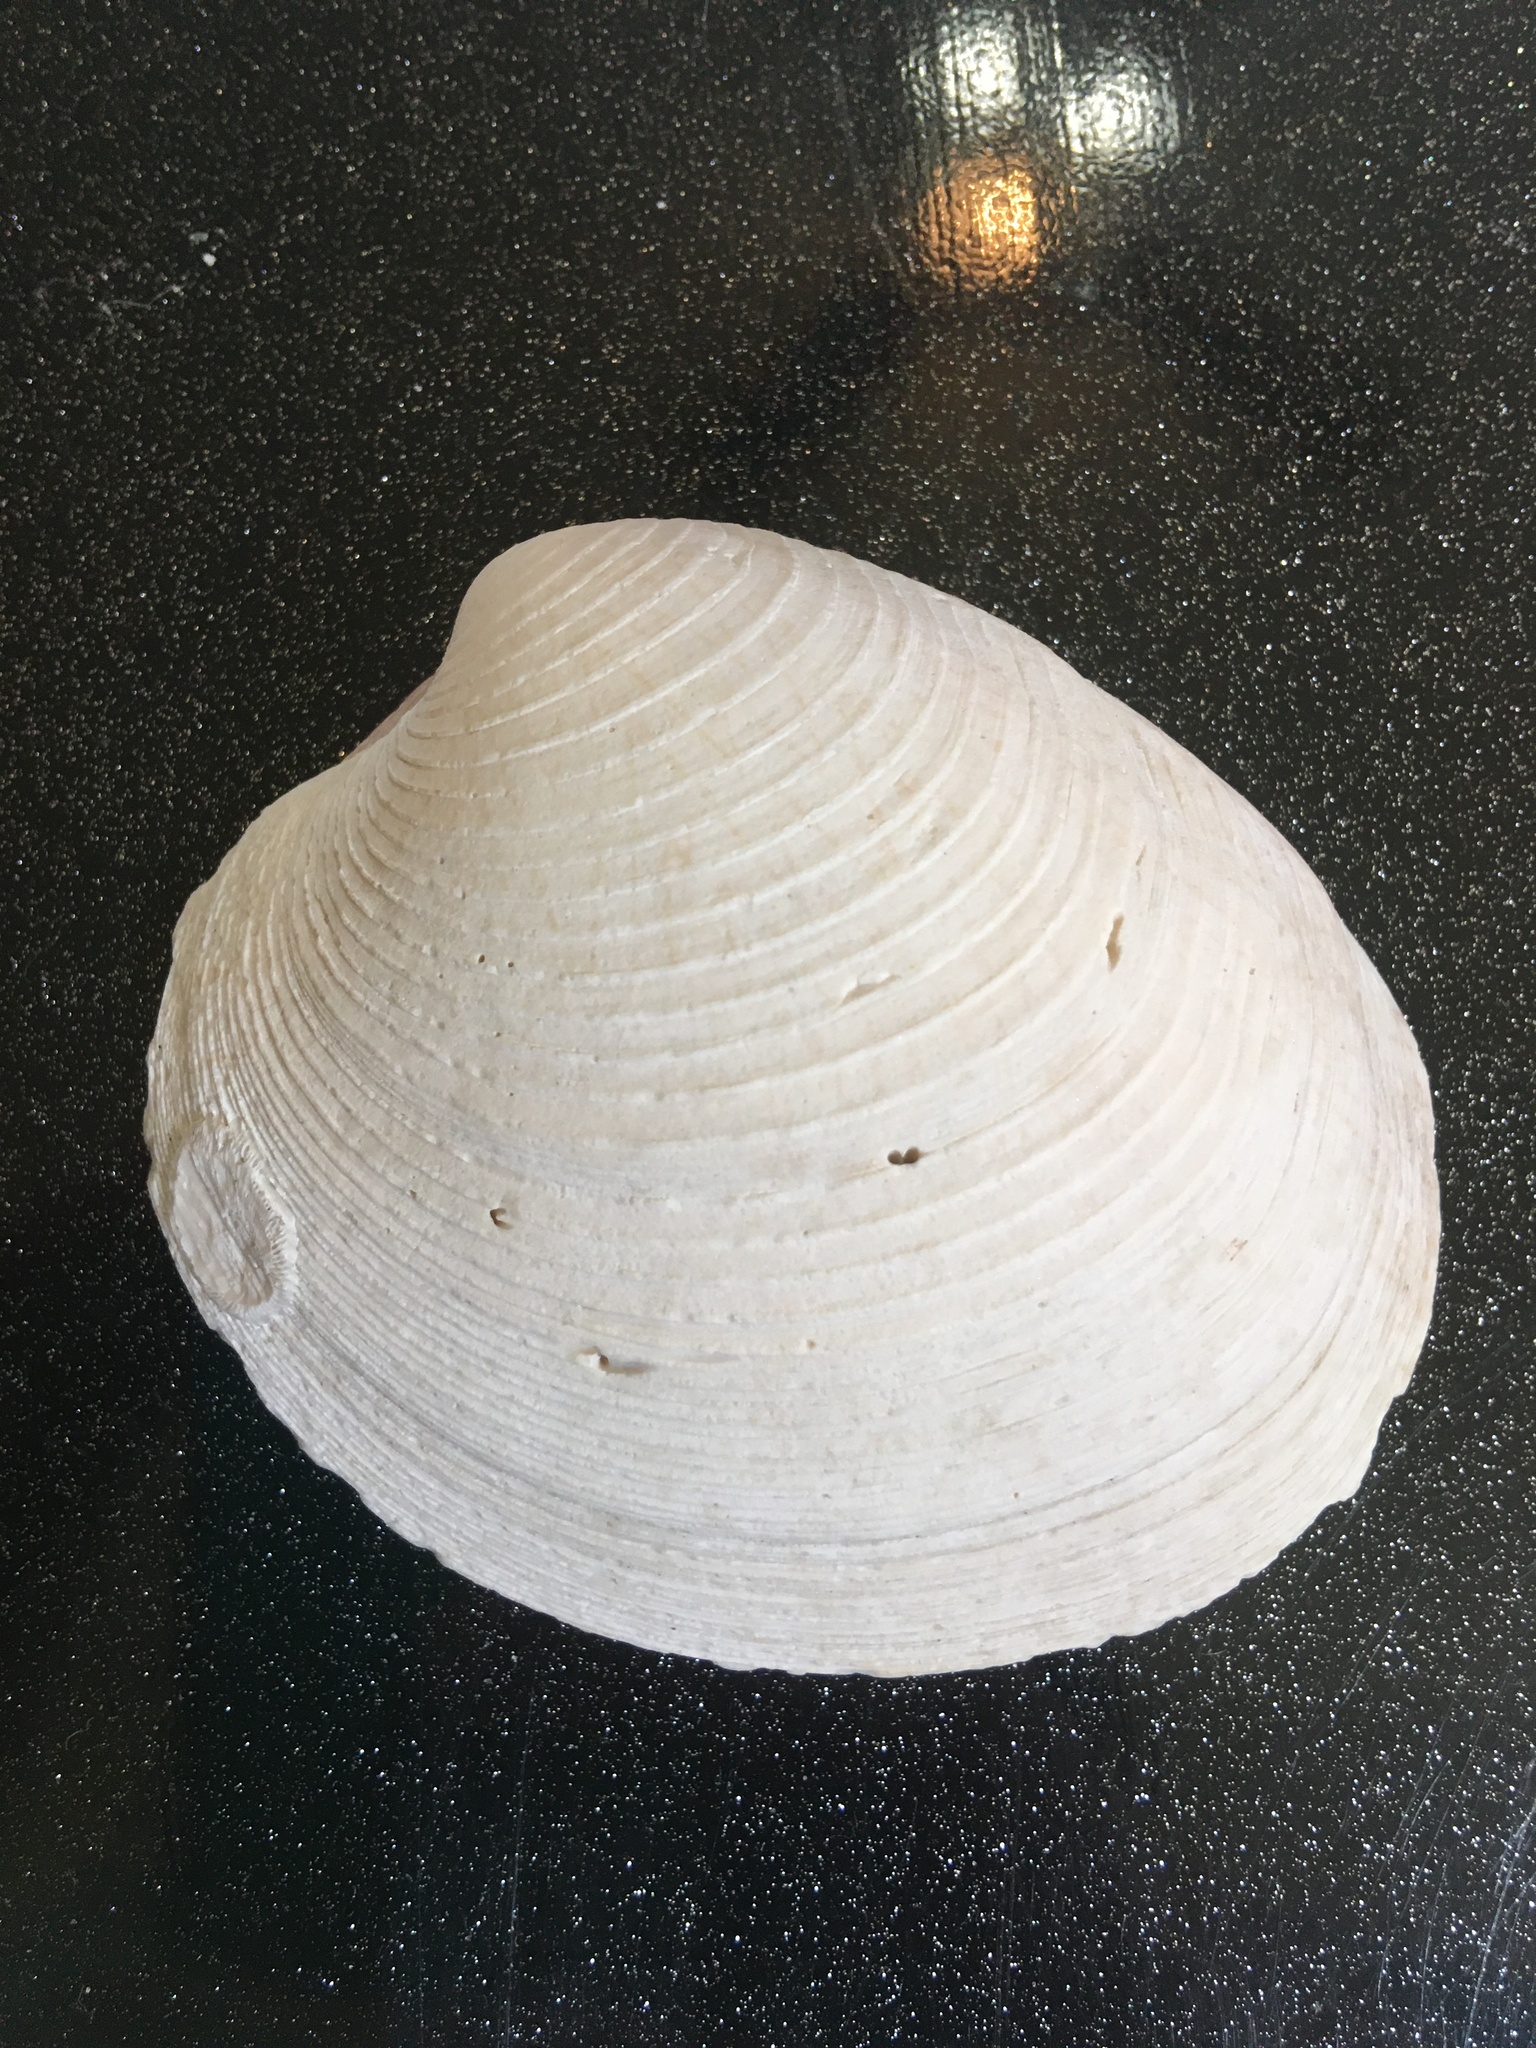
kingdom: Animalia
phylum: Mollusca
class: Bivalvia
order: Venerida
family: Veneridae
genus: Mercenaria
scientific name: Mercenaria campechiensis
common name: Südliche quahog-muschel
